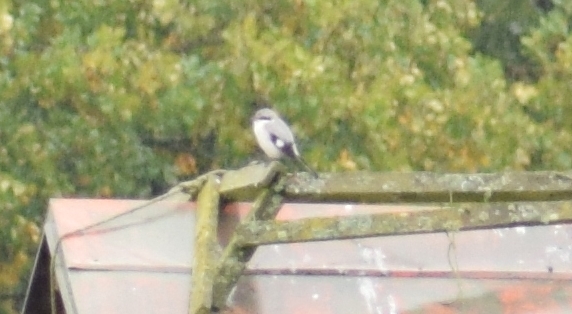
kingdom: Animalia
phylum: Chordata
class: Aves
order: Passeriformes
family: Laniidae
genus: Lanius
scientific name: Lanius excubitor
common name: Great grey shrike
